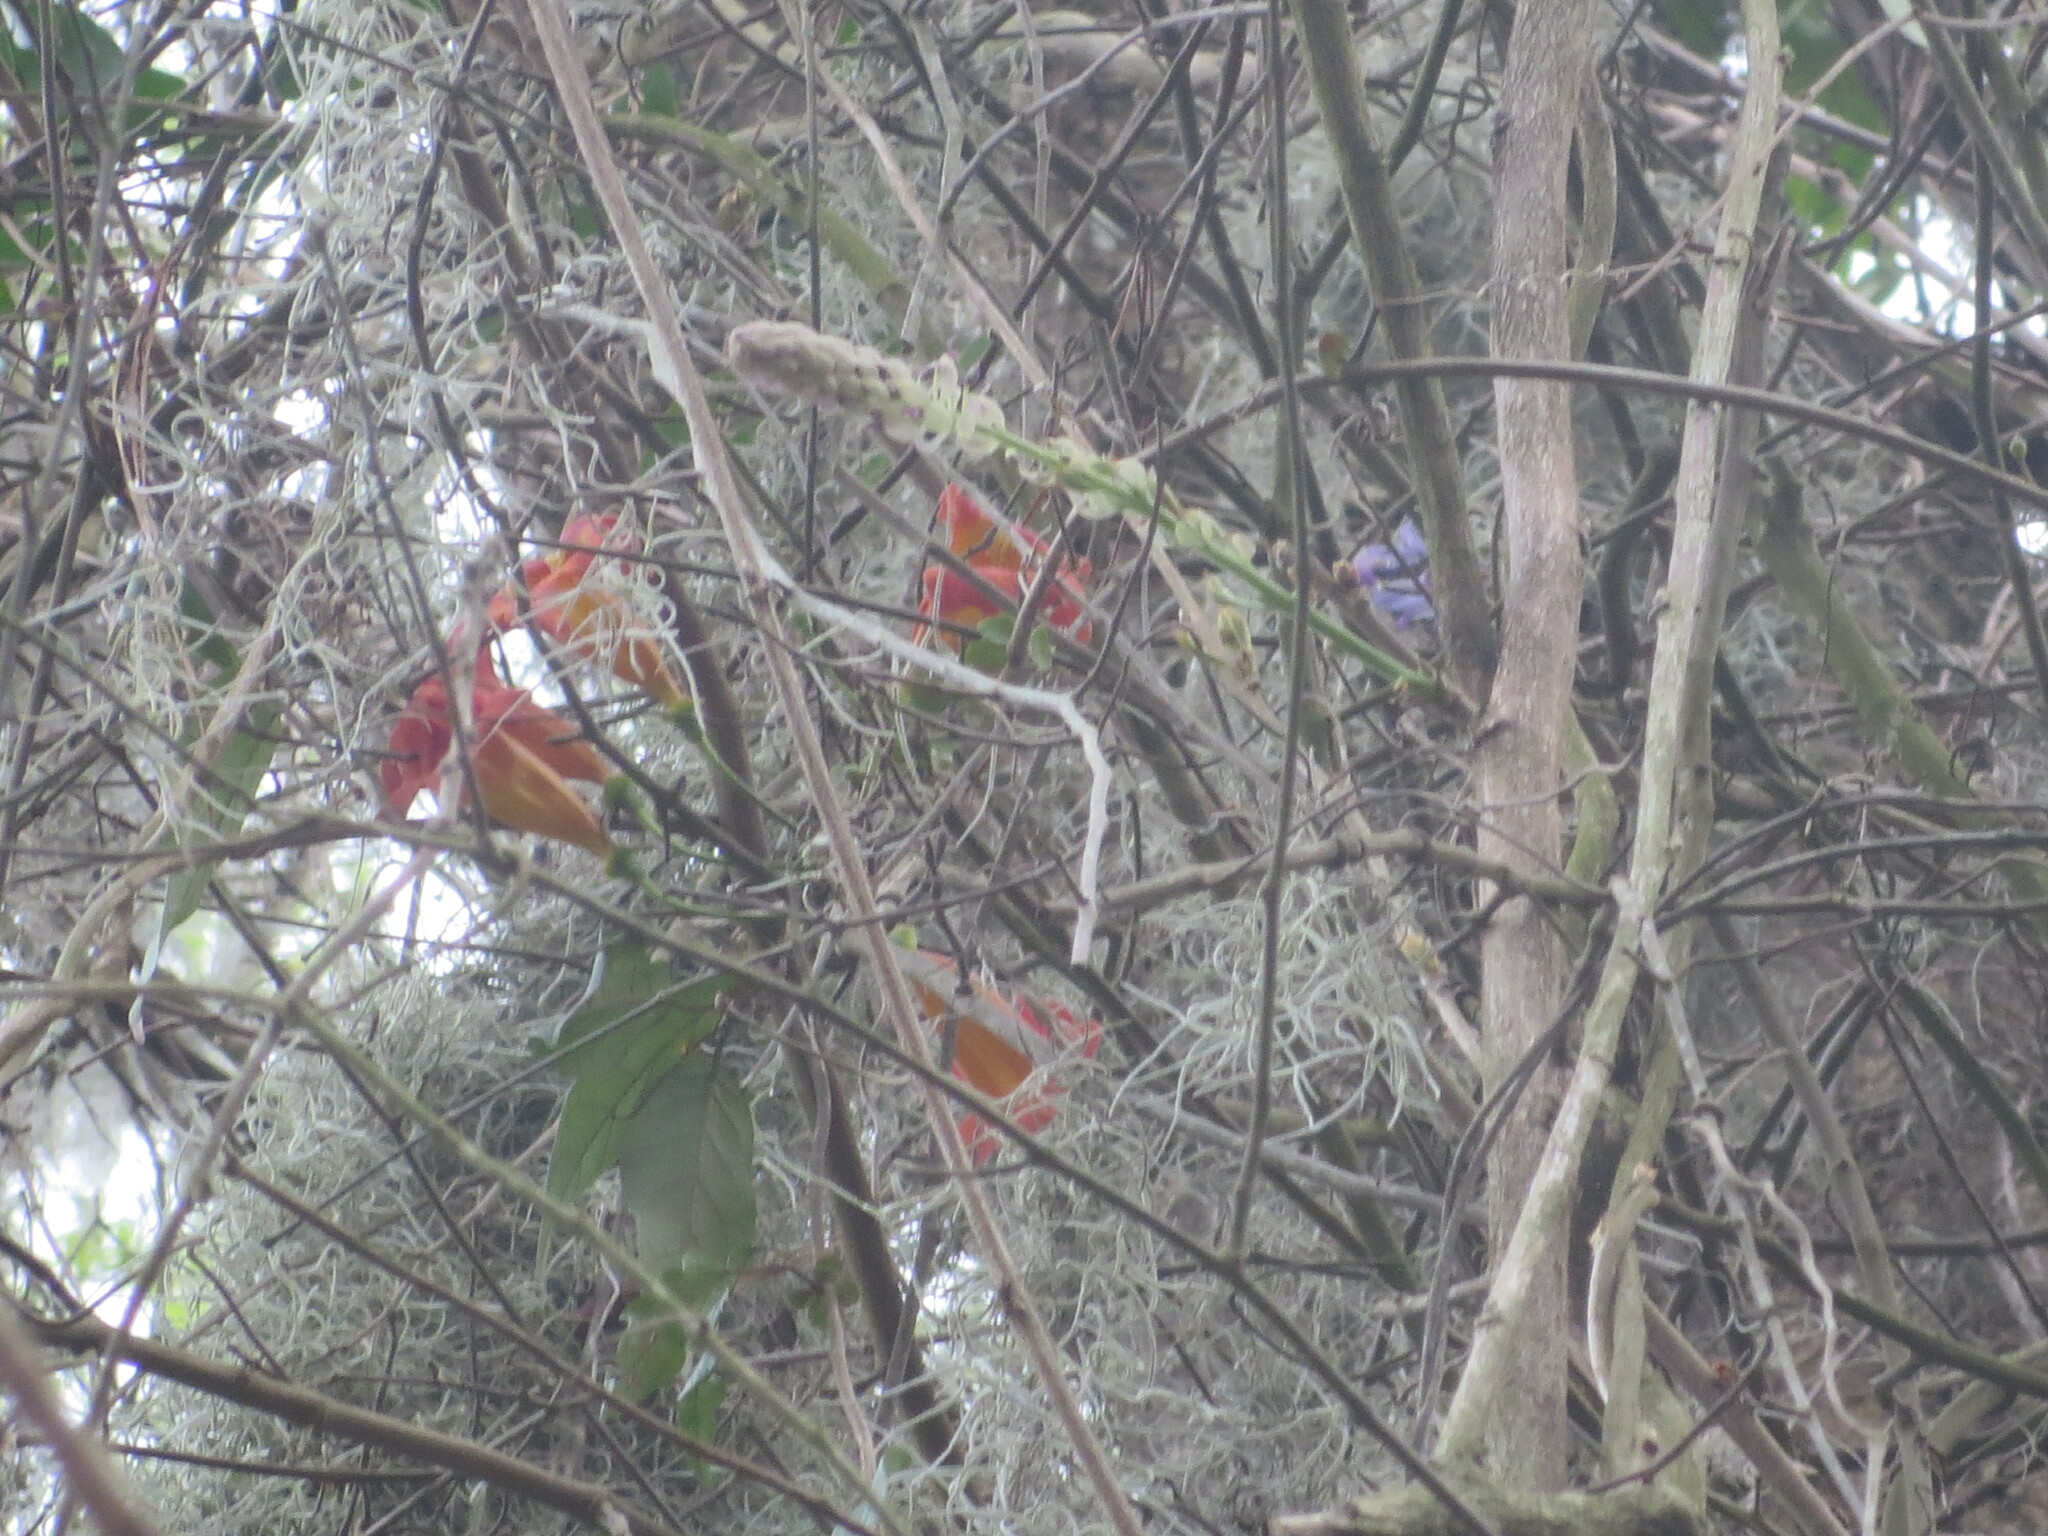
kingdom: Plantae
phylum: Tracheophyta
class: Magnoliopsida
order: Lamiales
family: Bignoniaceae
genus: Bignonia
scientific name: Bignonia capreolata
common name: Crossvine
